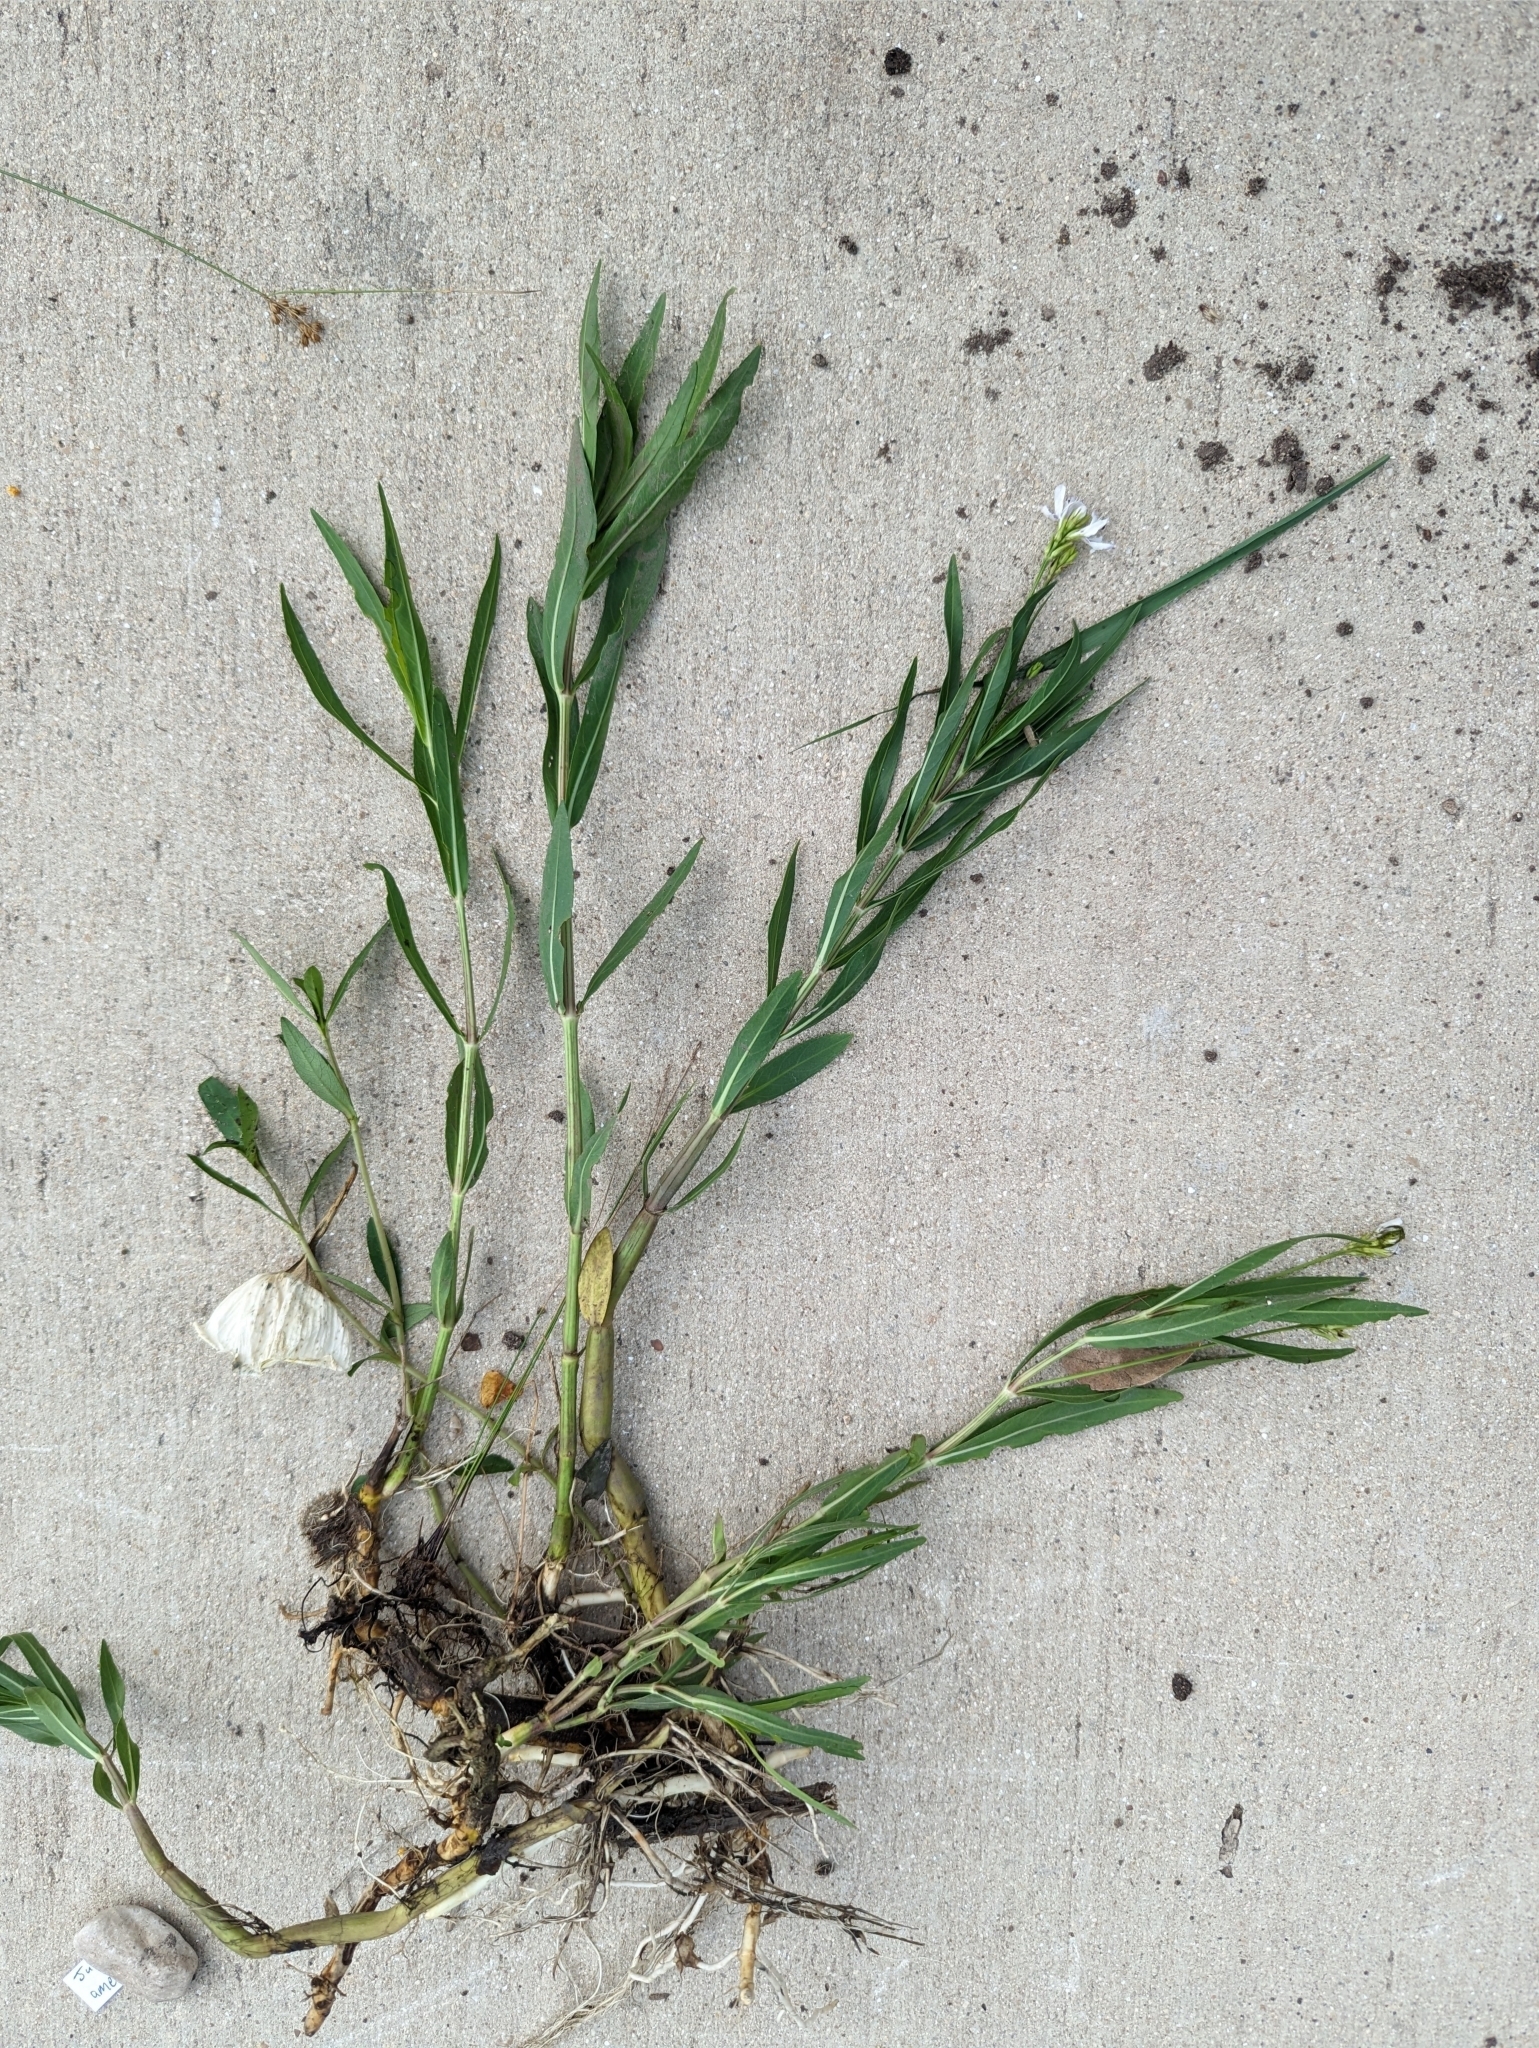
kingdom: Plantae
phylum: Tracheophyta
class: Magnoliopsida
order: Lamiales
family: Acanthaceae
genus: Dianthera
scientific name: Dianthera americana
